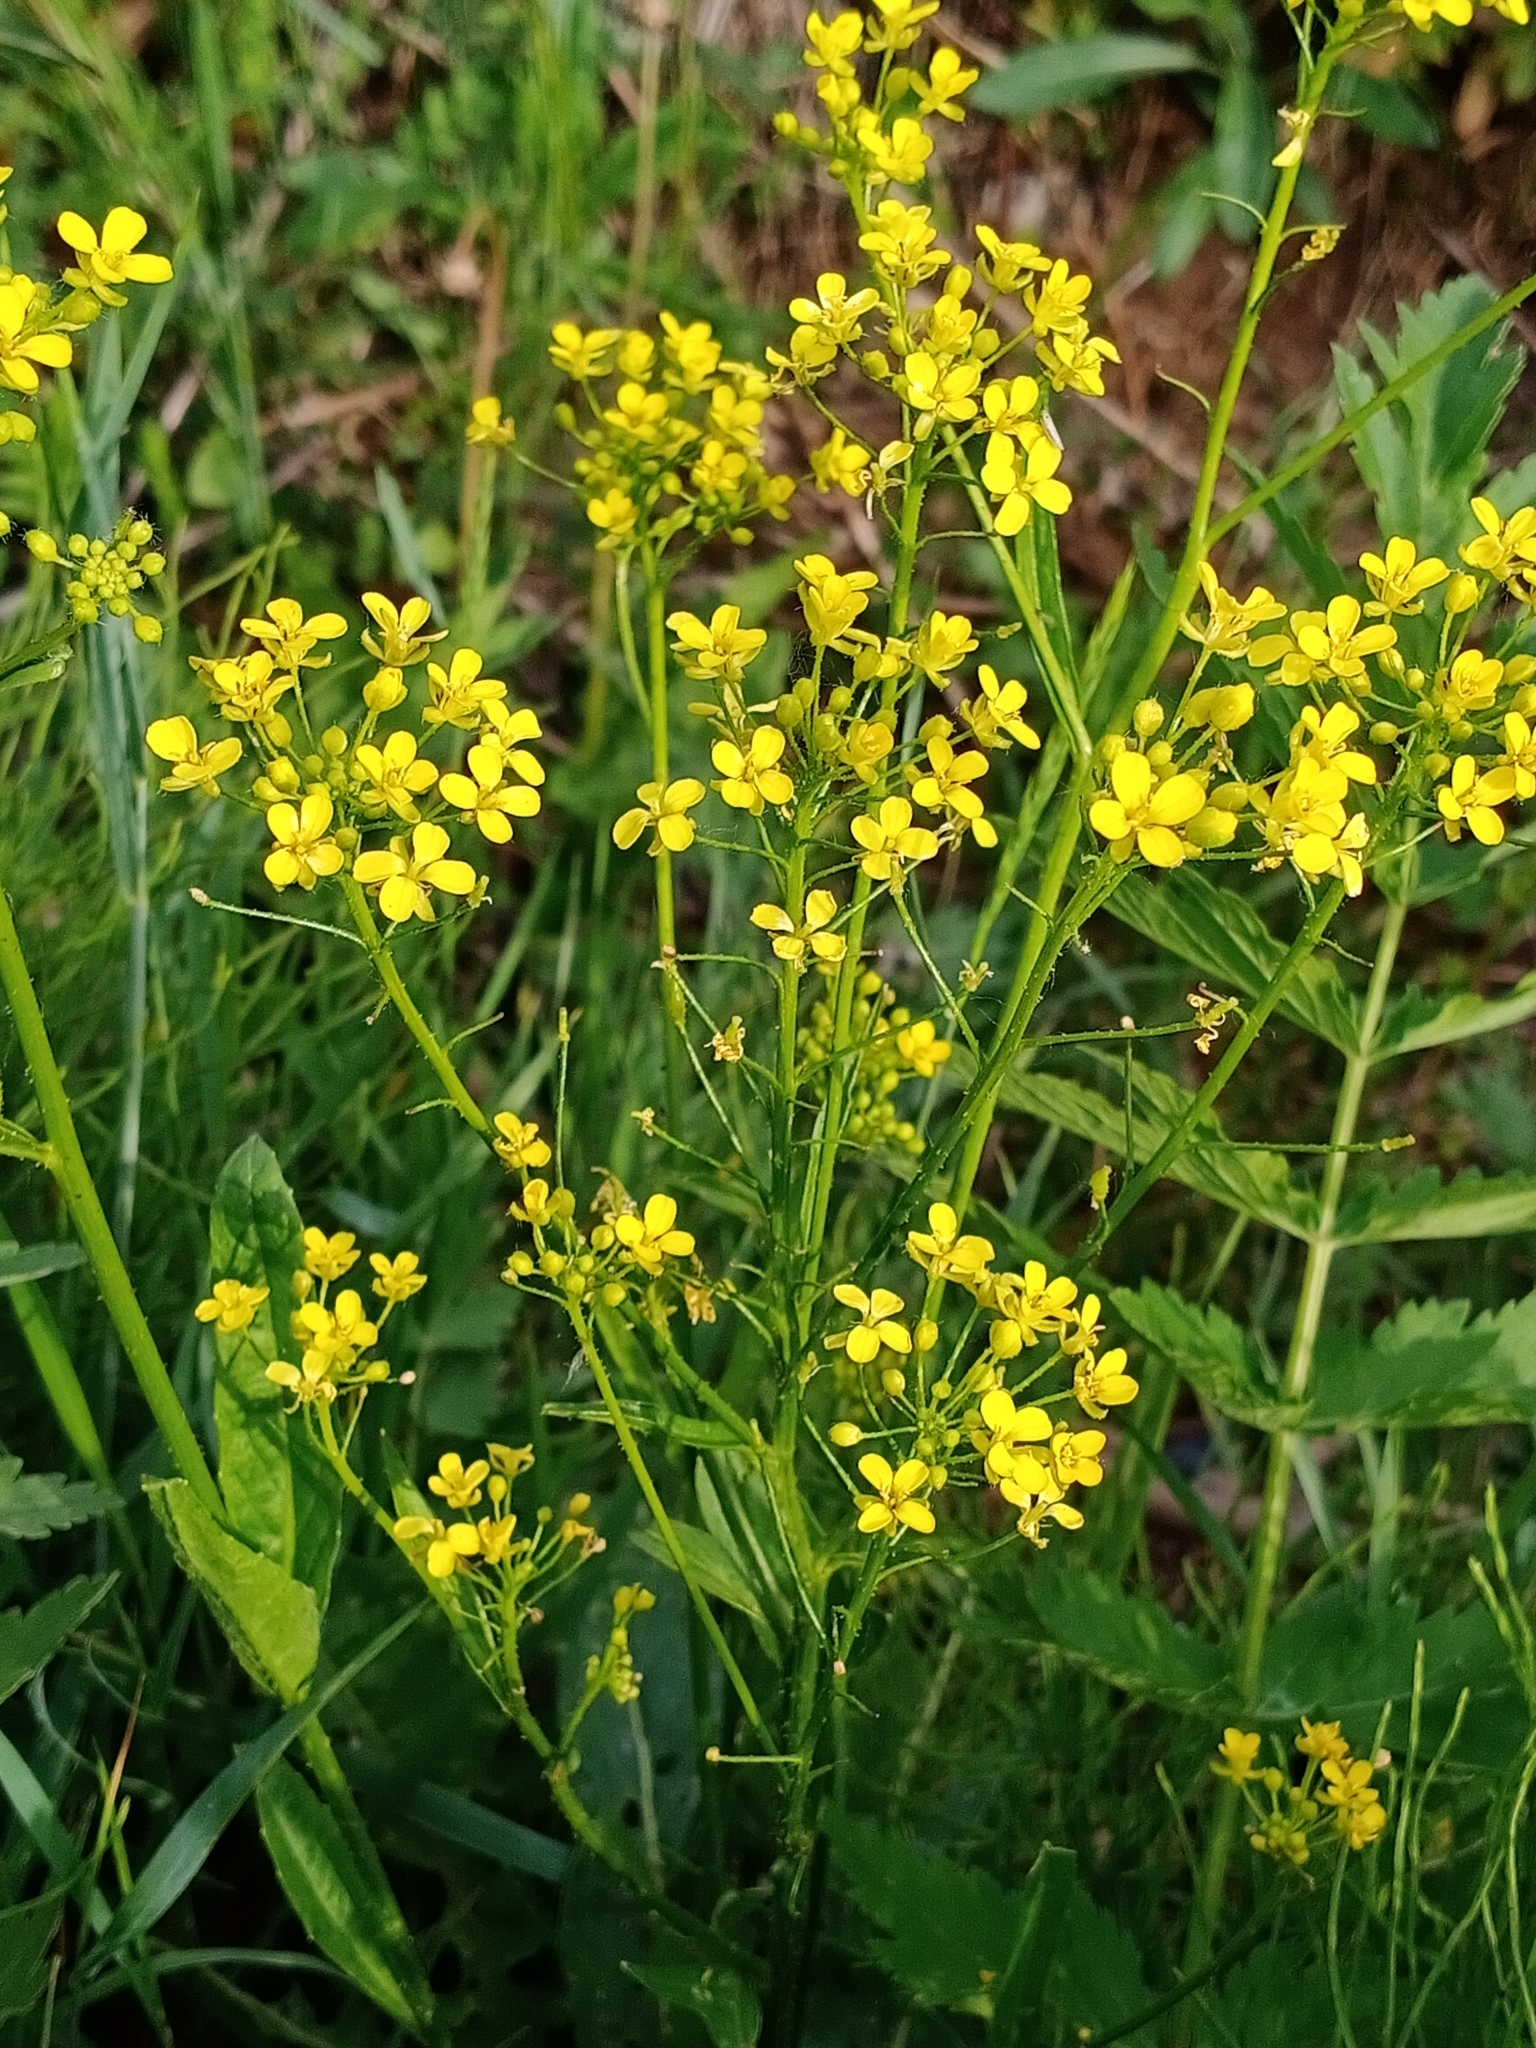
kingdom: Plantae
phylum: Tracheophyta
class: Magnoliopsida
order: Brassicales
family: Brassicaceae
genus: Bunias
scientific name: Bunias orientalis
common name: Warty-cabbage
